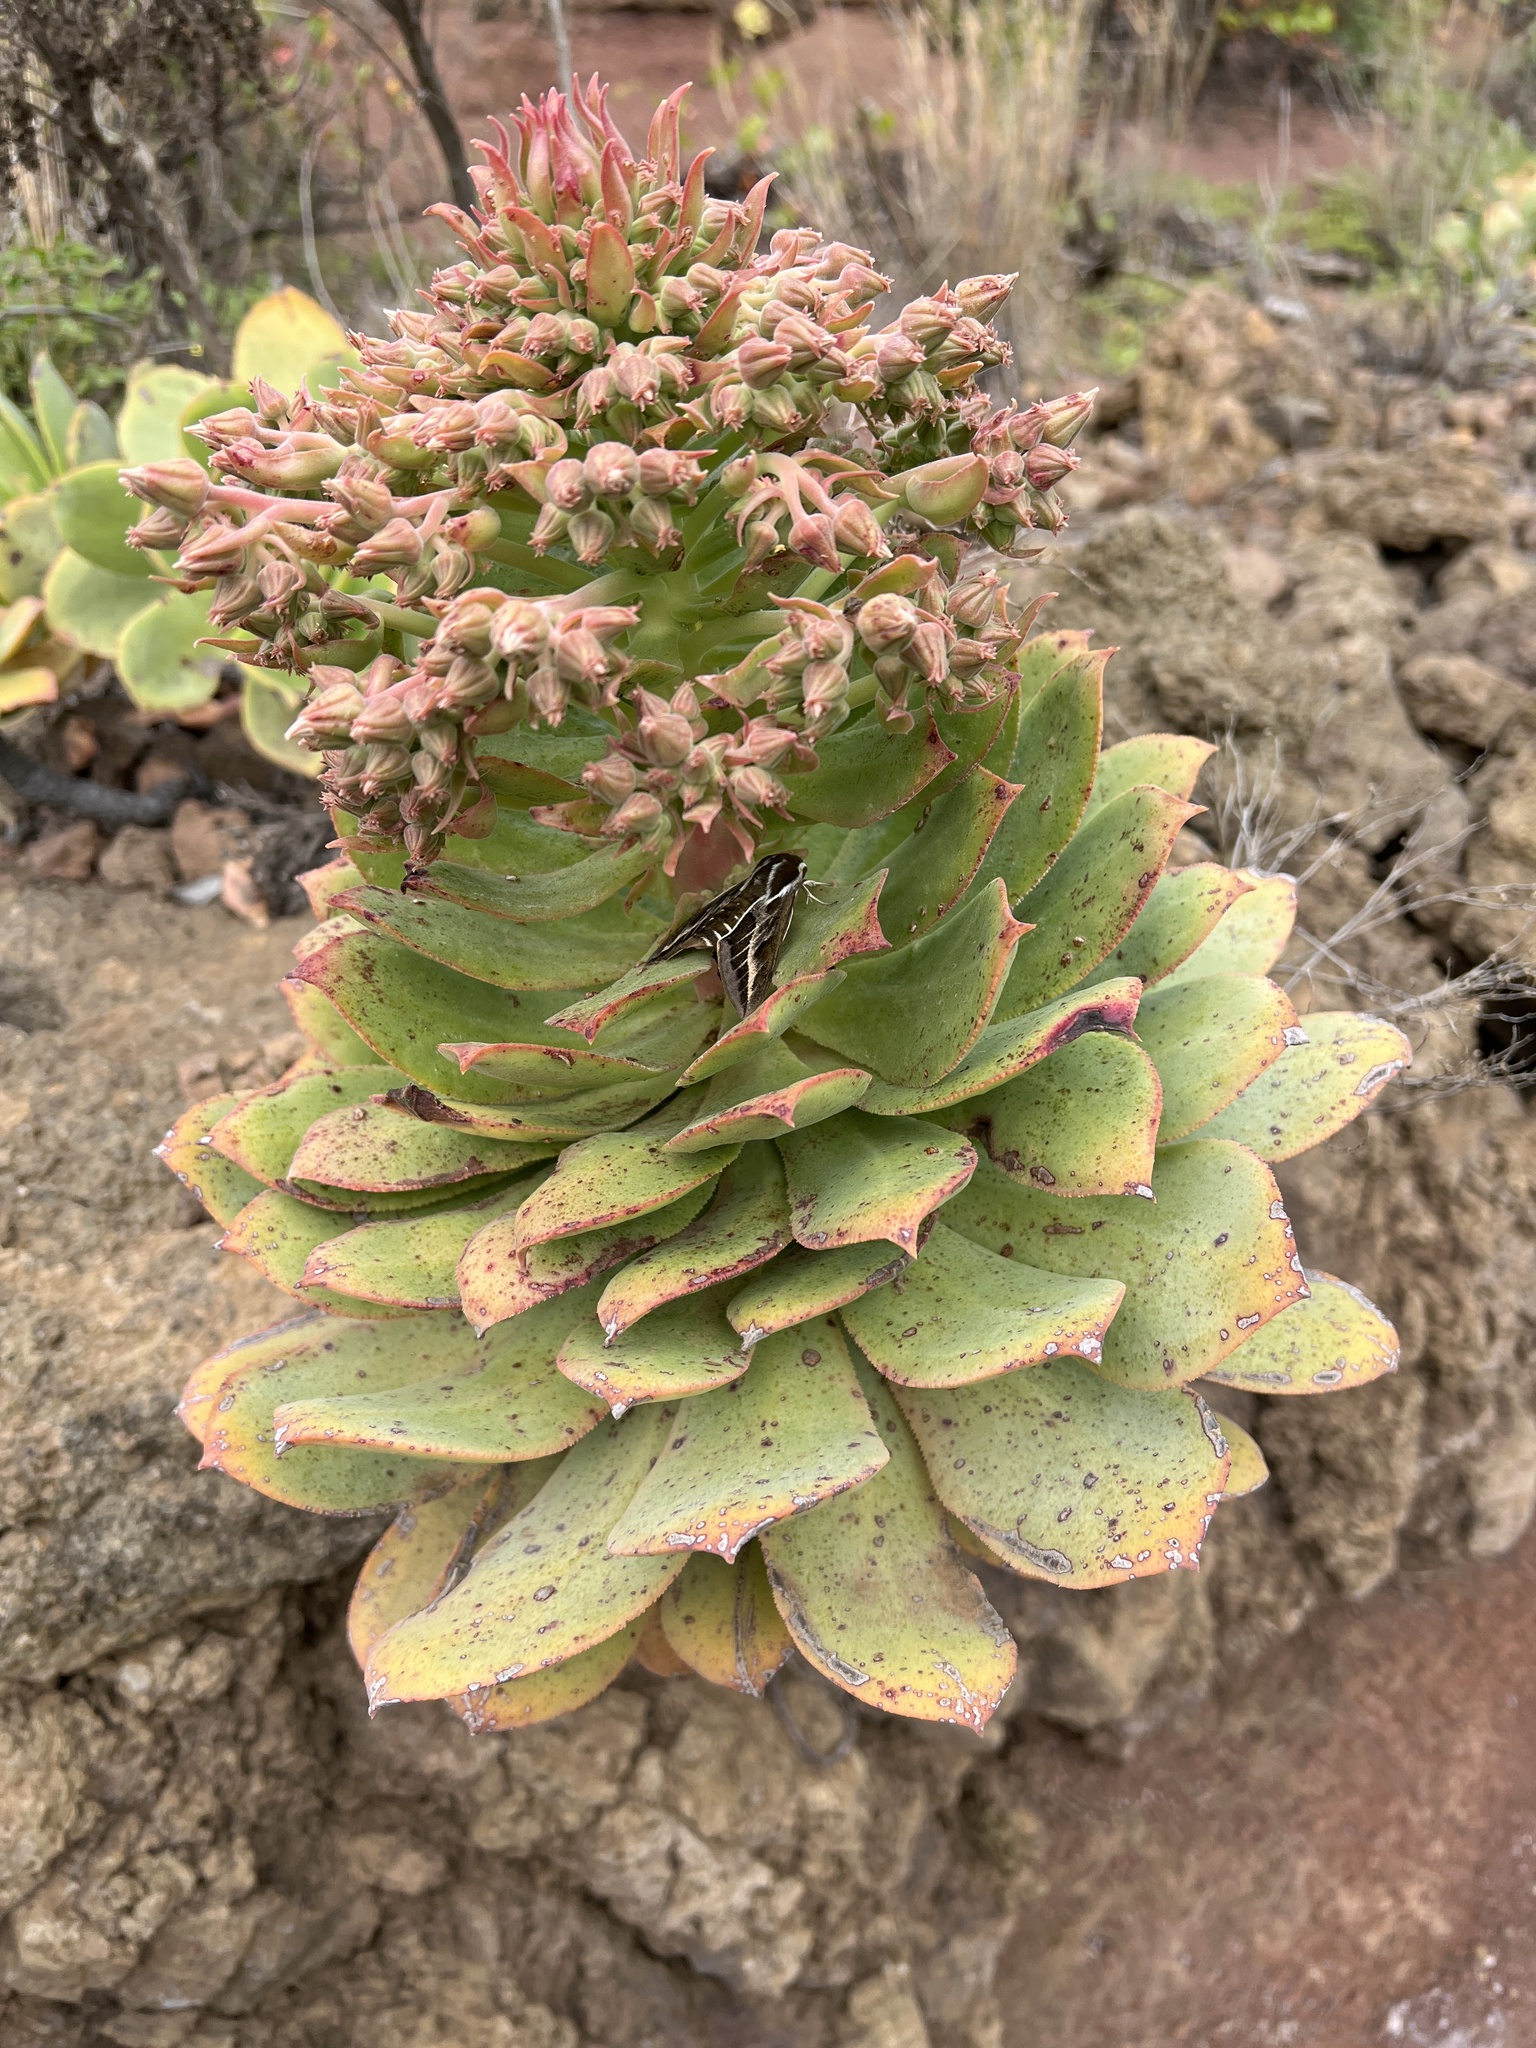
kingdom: Plantae
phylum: Tracheophyta
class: Magnoliopsida
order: Saxifragales
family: Crassulaceae
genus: Aeonium
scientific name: Aeonium valverdense
